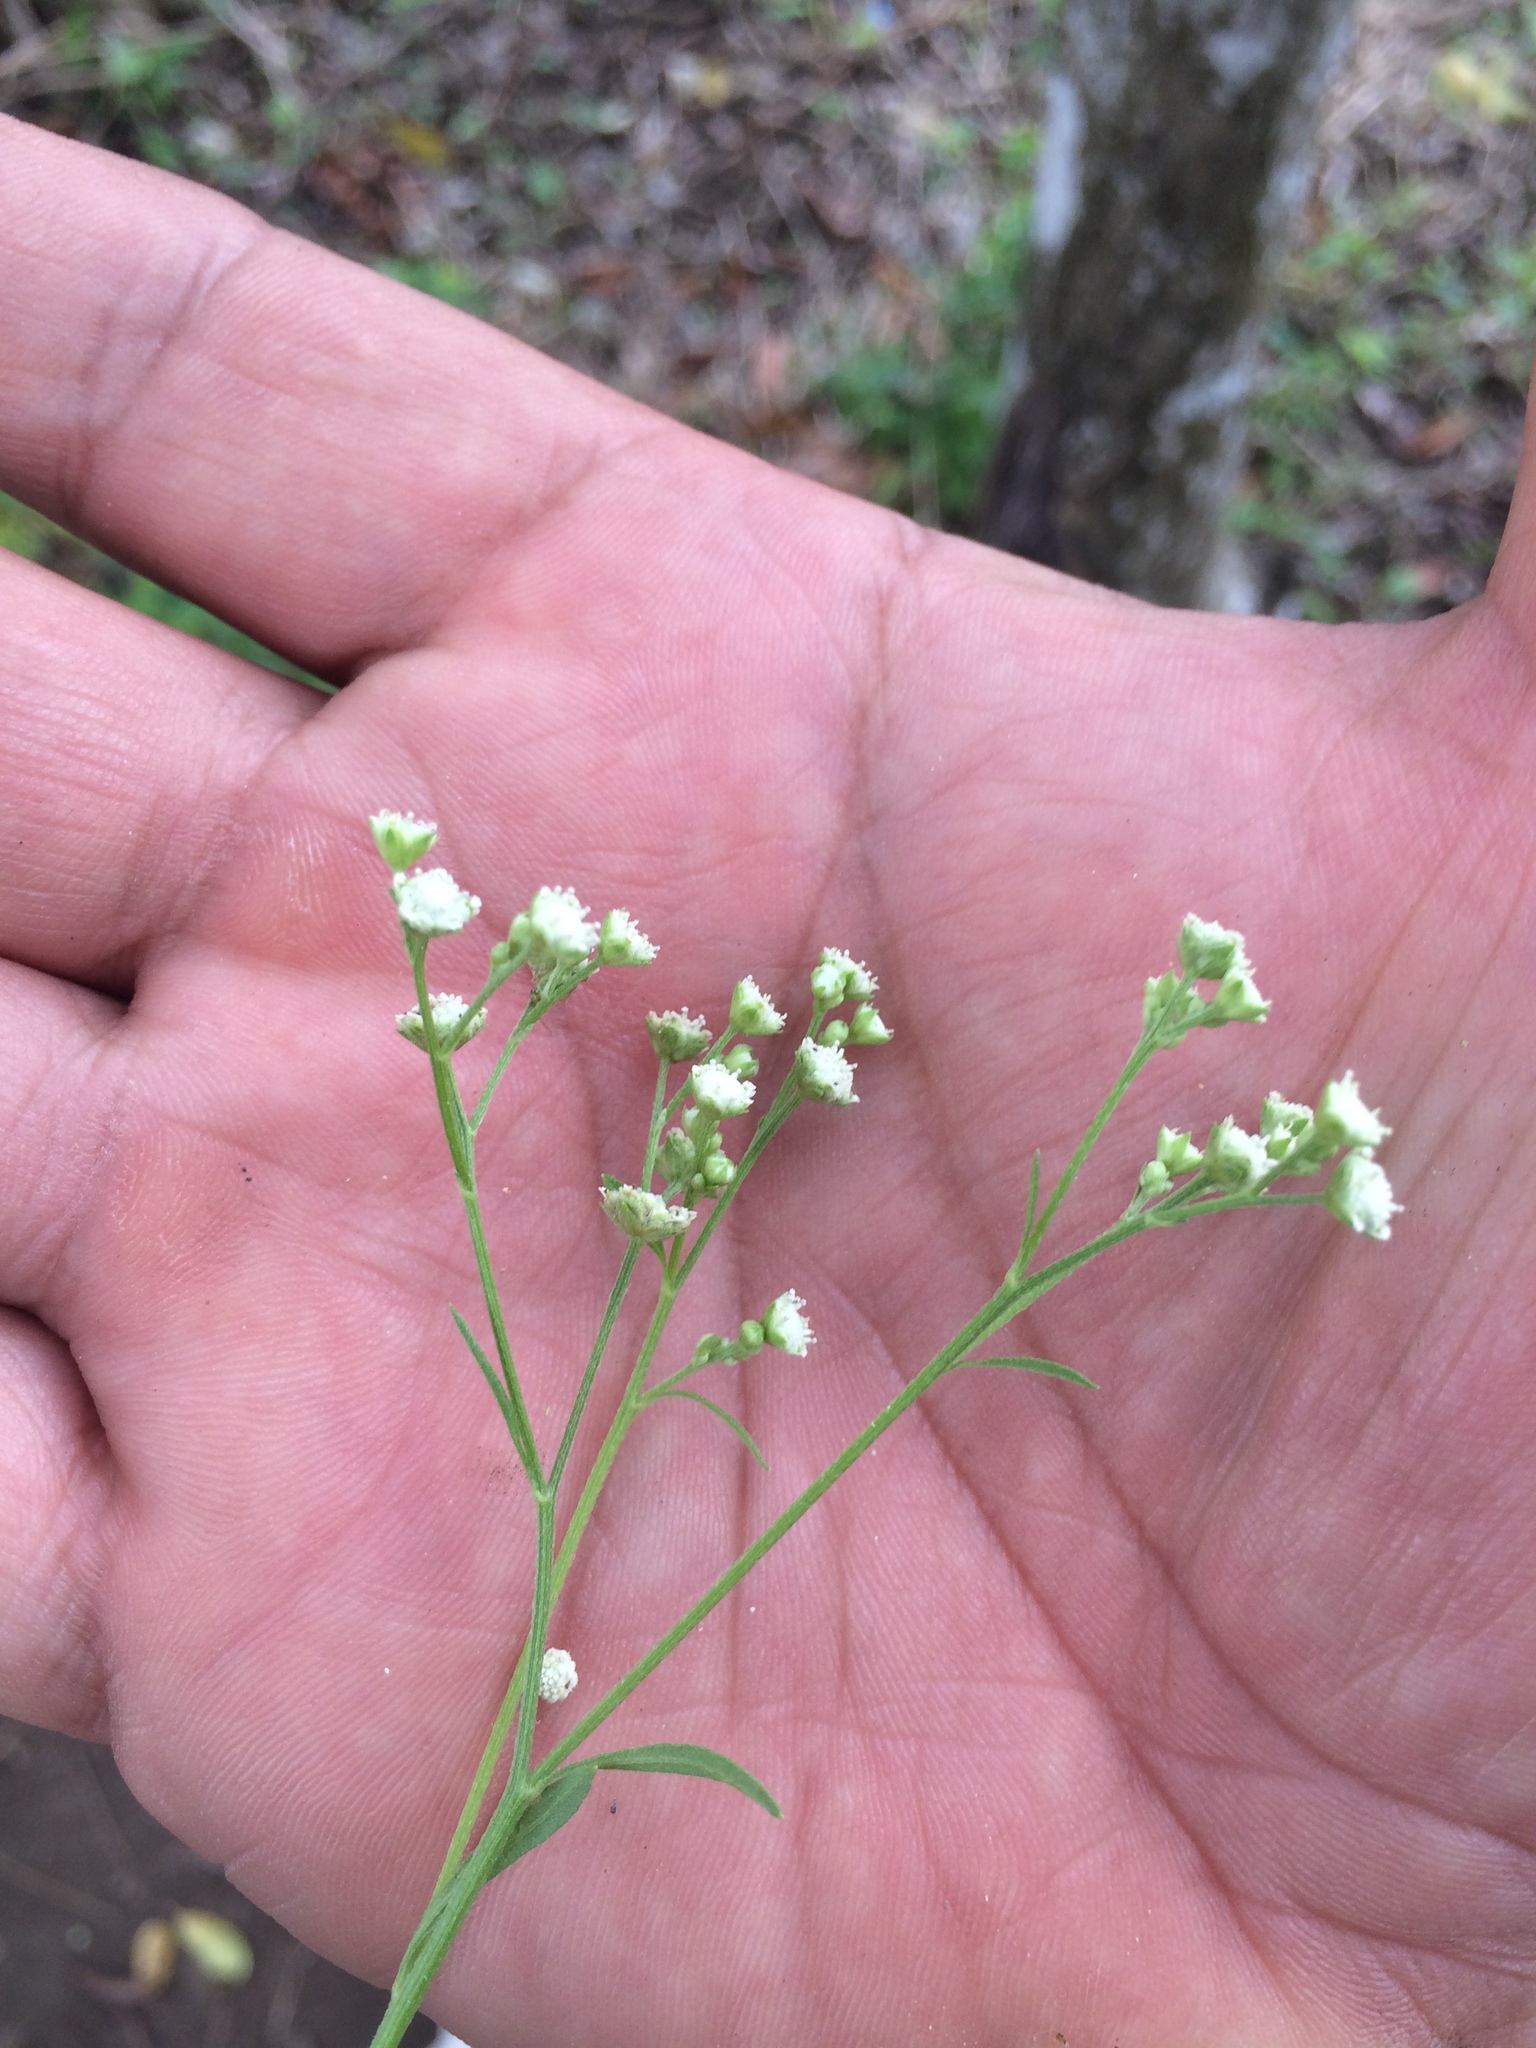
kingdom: Plantae
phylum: Tracheophyta
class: Magnoliopsida
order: Asterales
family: Asteraceae
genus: Parthenium
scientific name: Parthenium hysterophorus
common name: Santa maria feverfew
